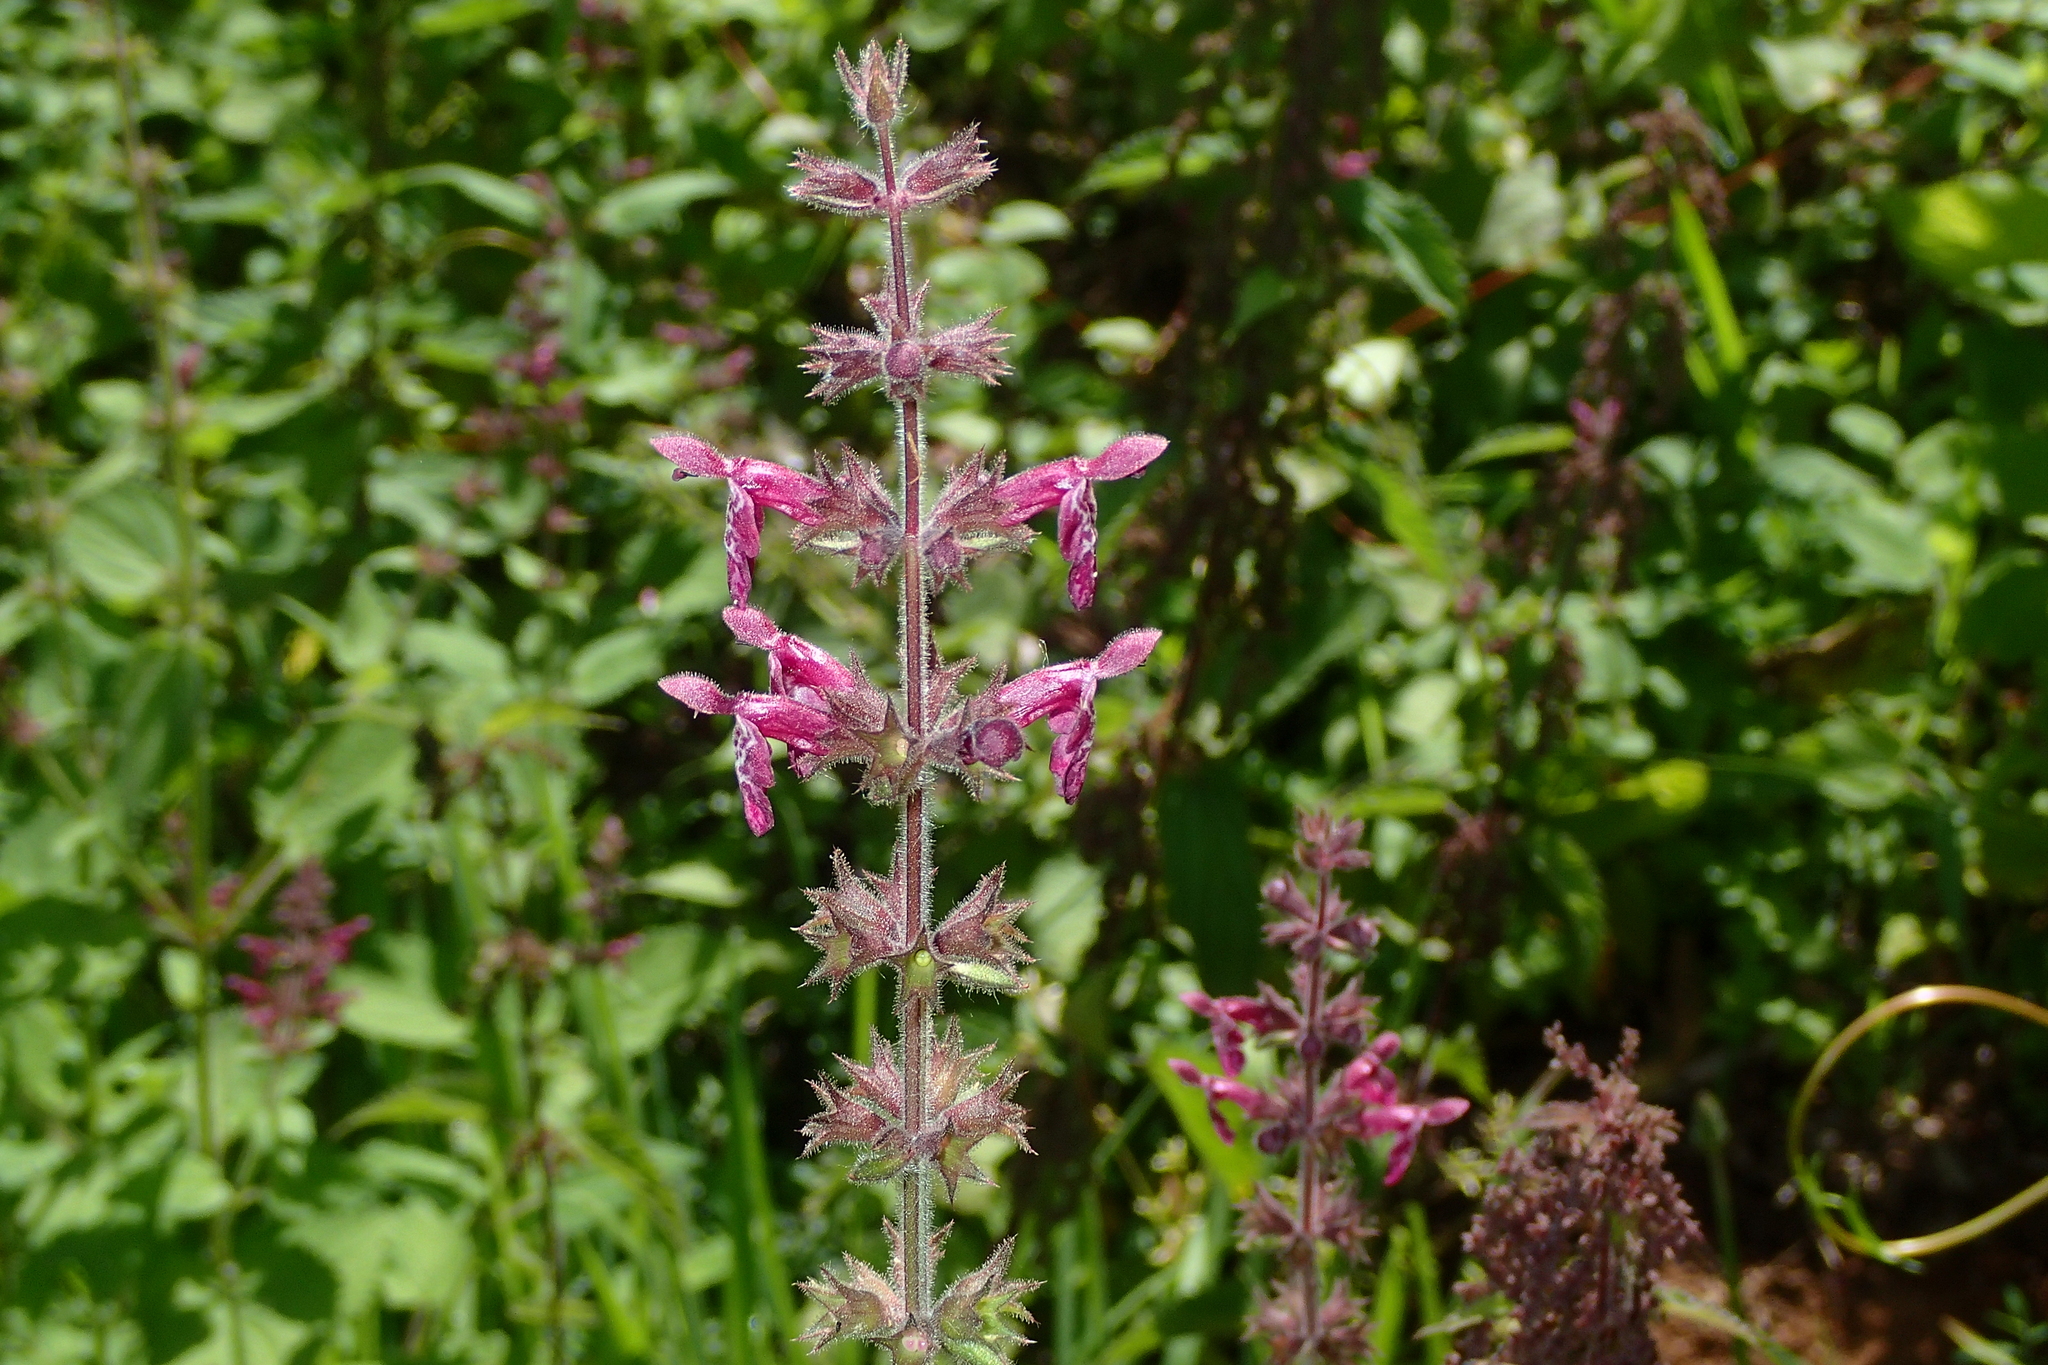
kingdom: Plantae
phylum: Tracheophyta
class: Magnoliopsida
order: Lamiales
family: Lamiaceae
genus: Stachys
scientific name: Stachys sylvatica
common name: Hedge woundwort
